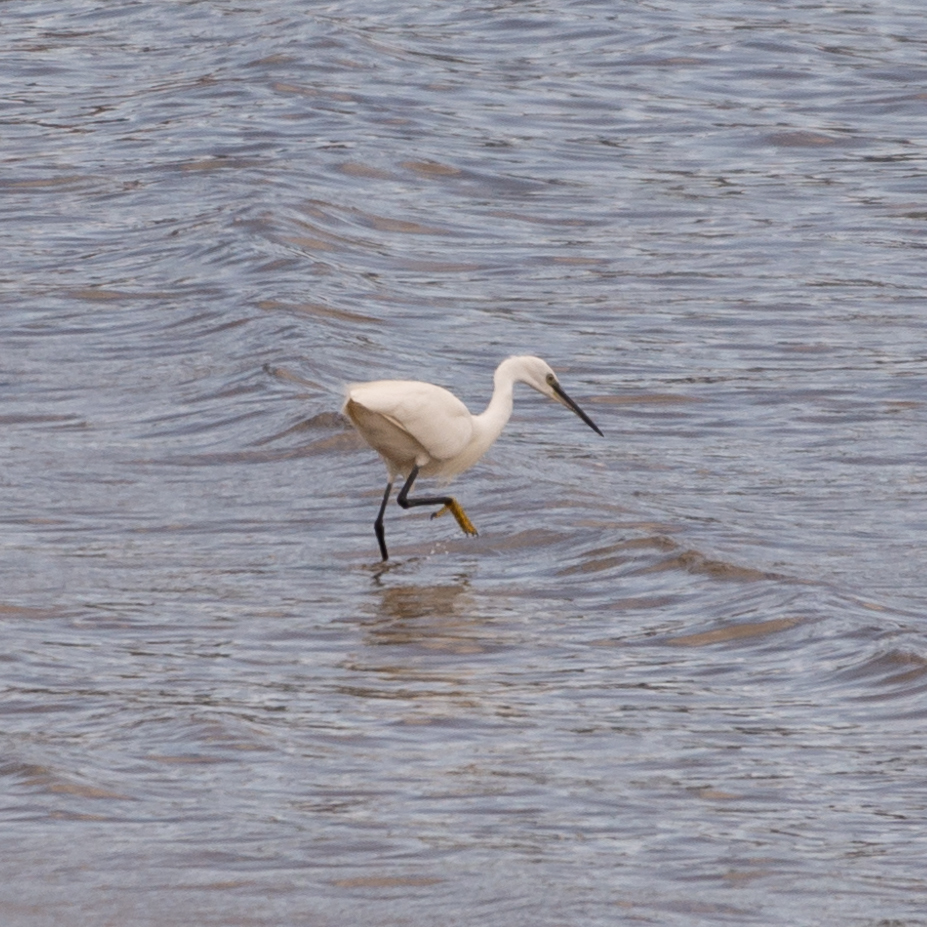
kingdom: Animalia
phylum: Chordata
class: Aves
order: Pelecaniformes
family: Ardeidae
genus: Egretta
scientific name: Egretta garzetta
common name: Little egret
